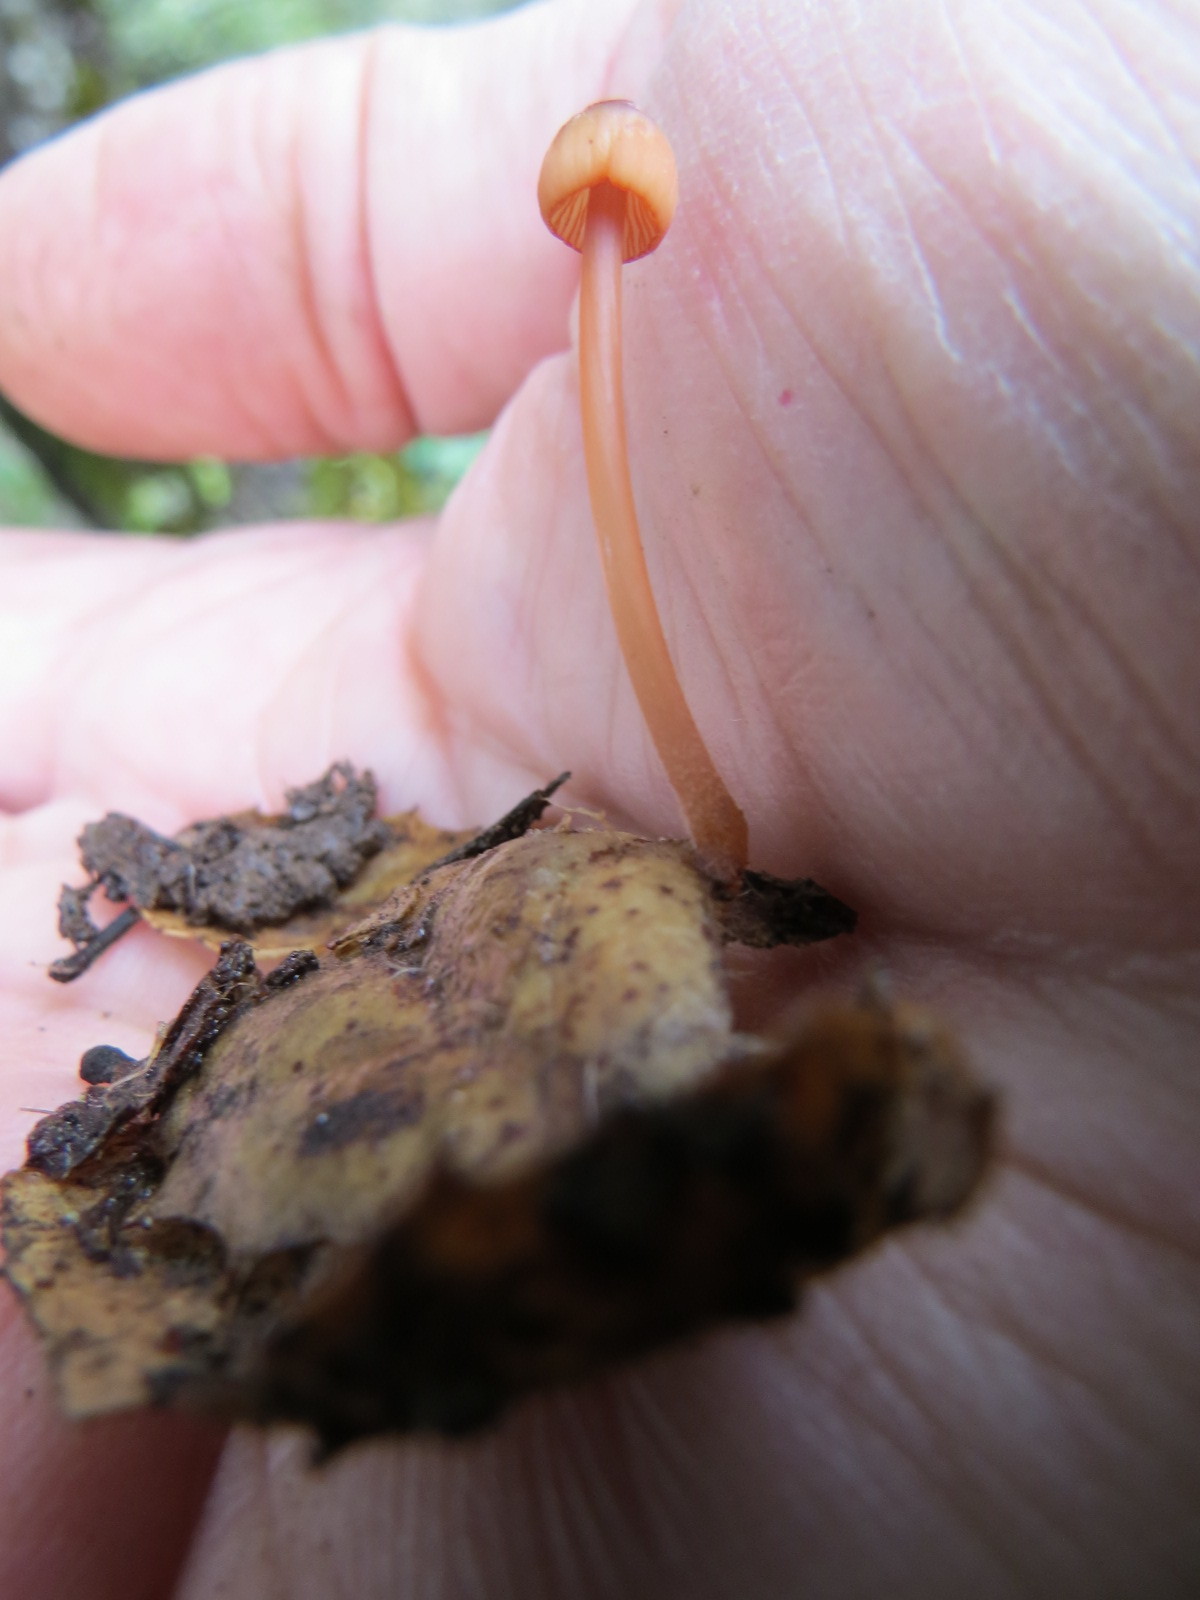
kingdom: Fungi
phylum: Basidiomycota
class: Agaricomycetes
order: Agaricales
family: Mycenaceae
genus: Mycena
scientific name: Mycena
